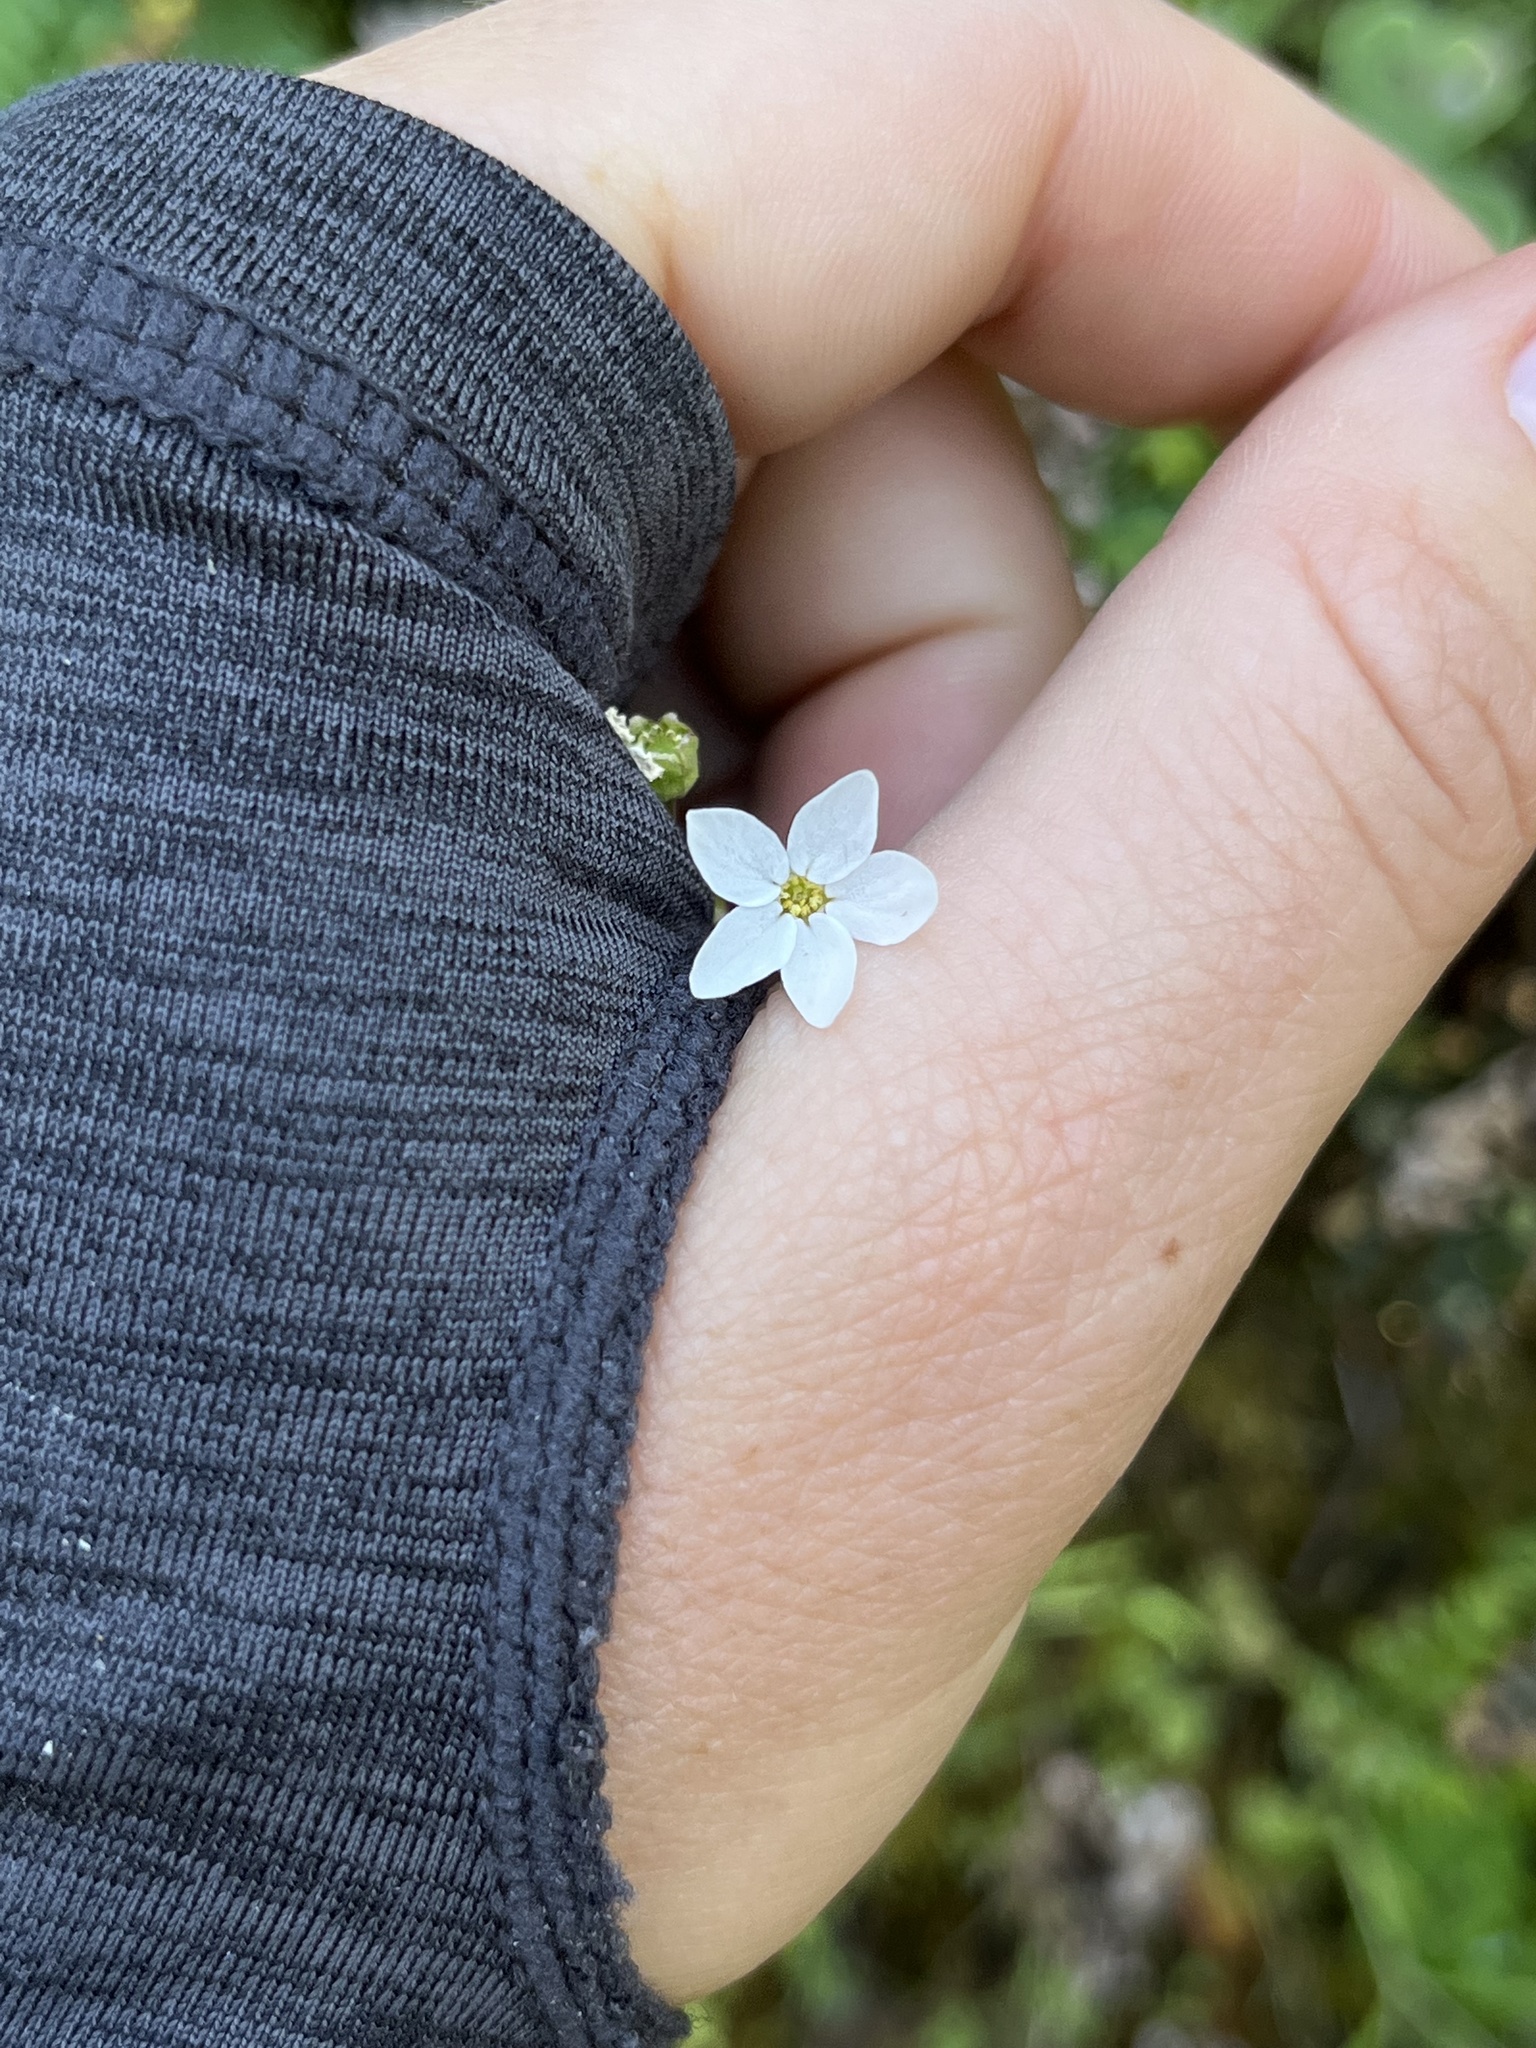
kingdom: Plantae
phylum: Tracheophyta
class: Magnoliopsida
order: Saxifragales
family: Saxifragaceae
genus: Lithophragma
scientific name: Lithophragma cymbalaria
